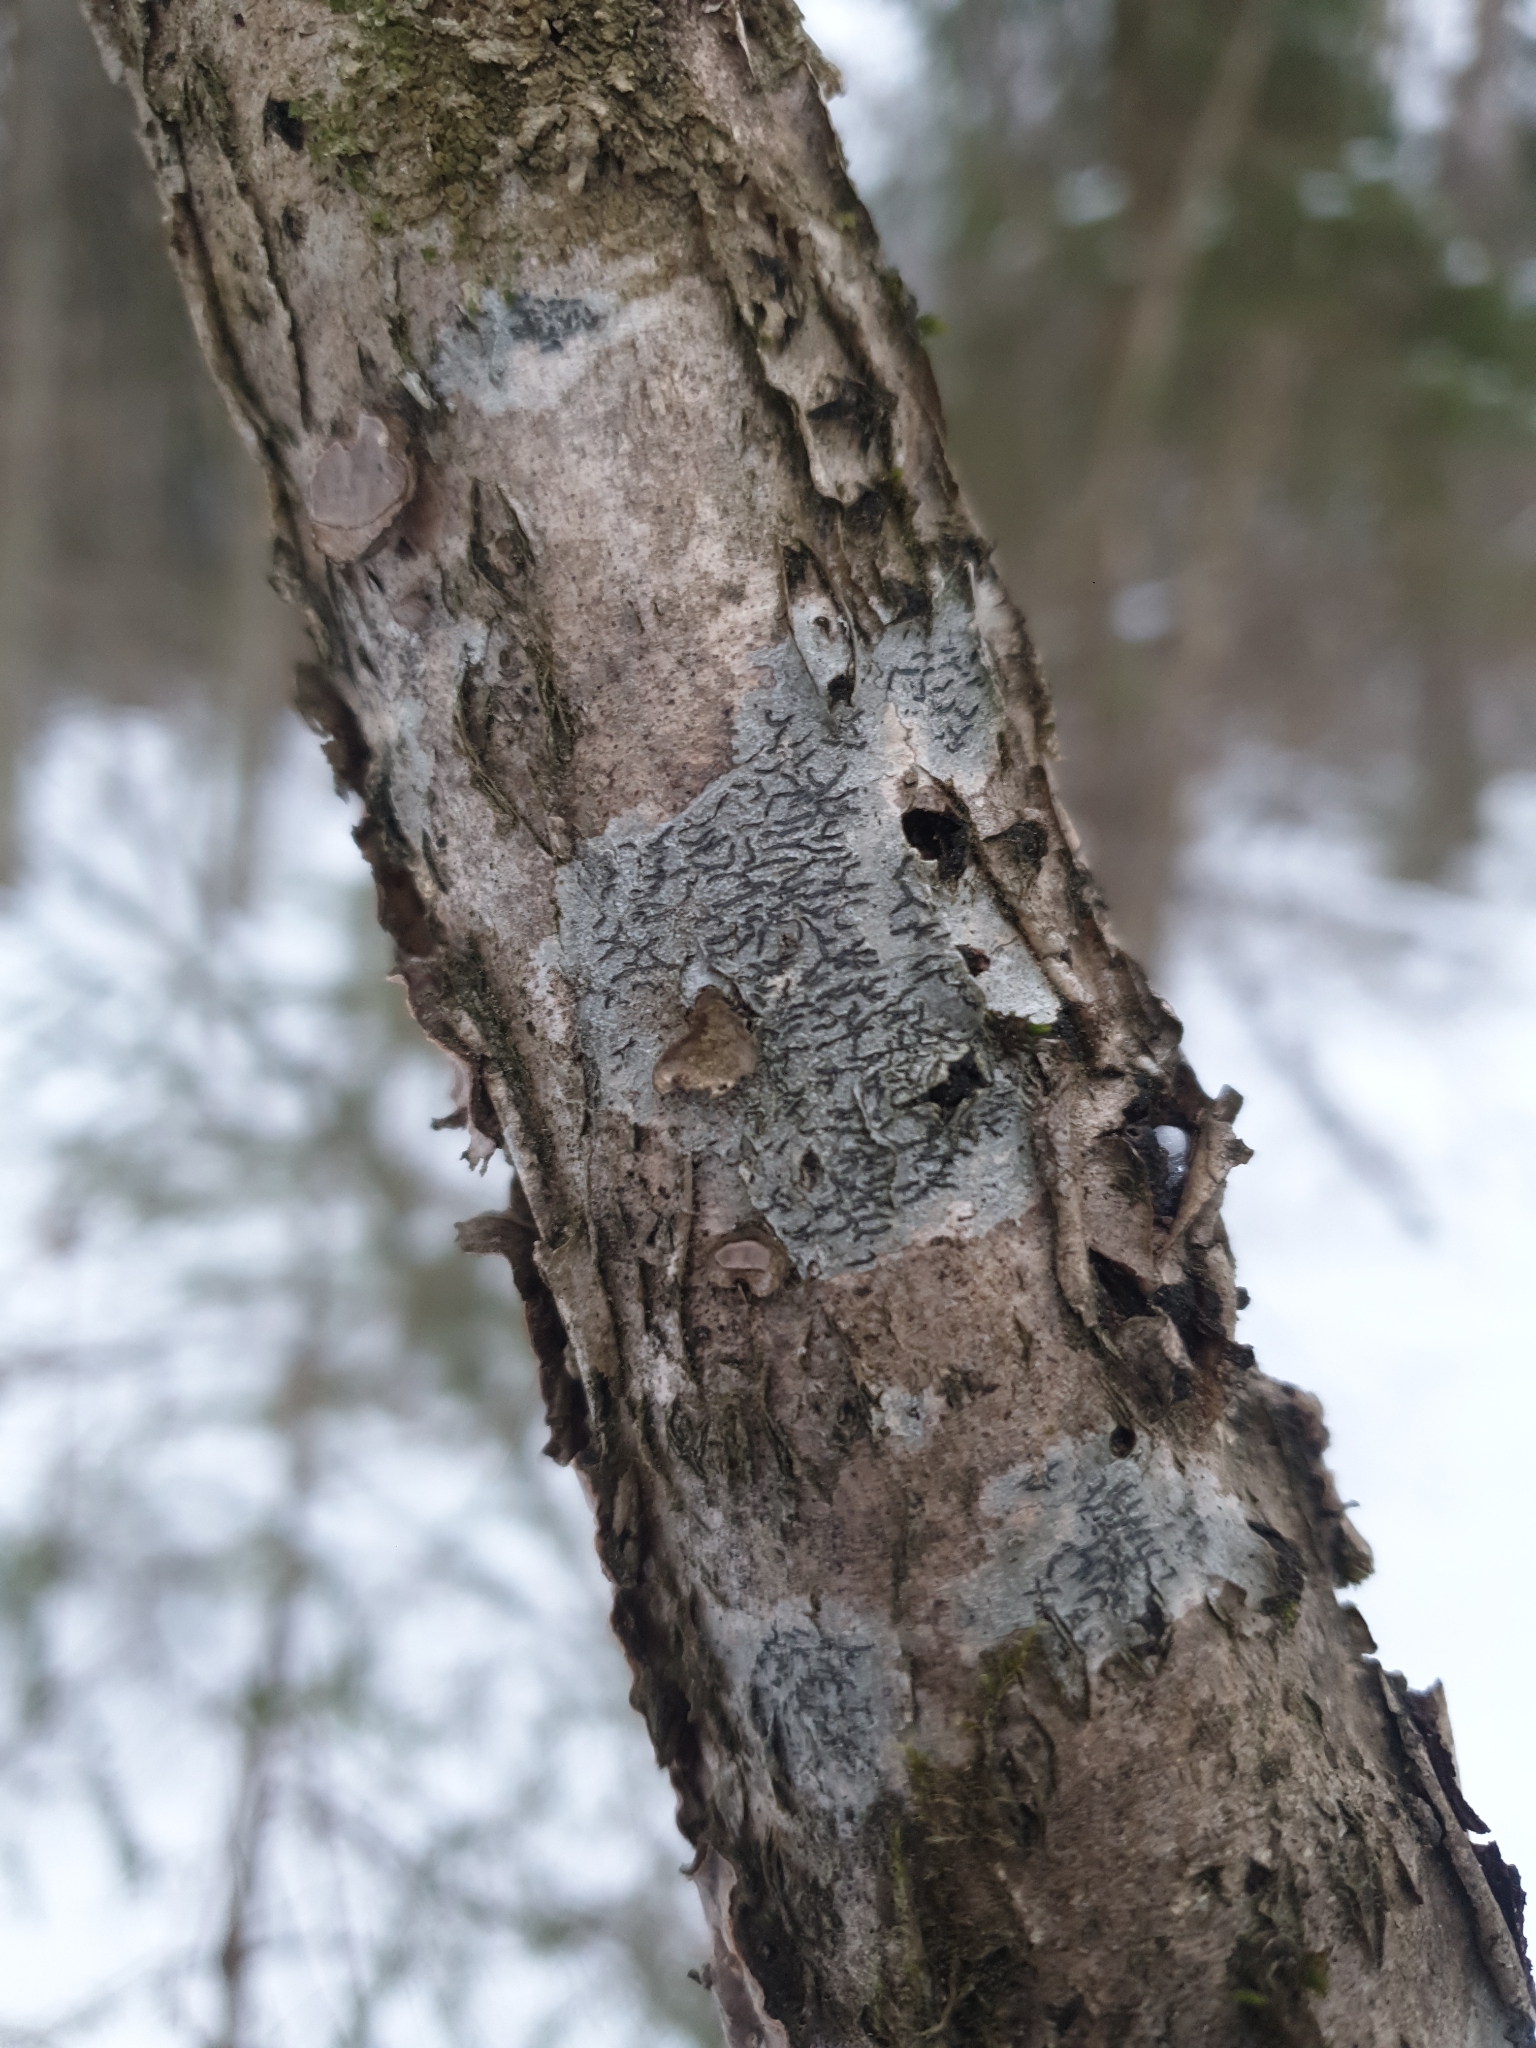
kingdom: Fungi
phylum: Ascomycota
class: Lecanoromycetes
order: Ostropales
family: Graphidaceae
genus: Graphis
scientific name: Graphis scripta
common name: Script lichen
